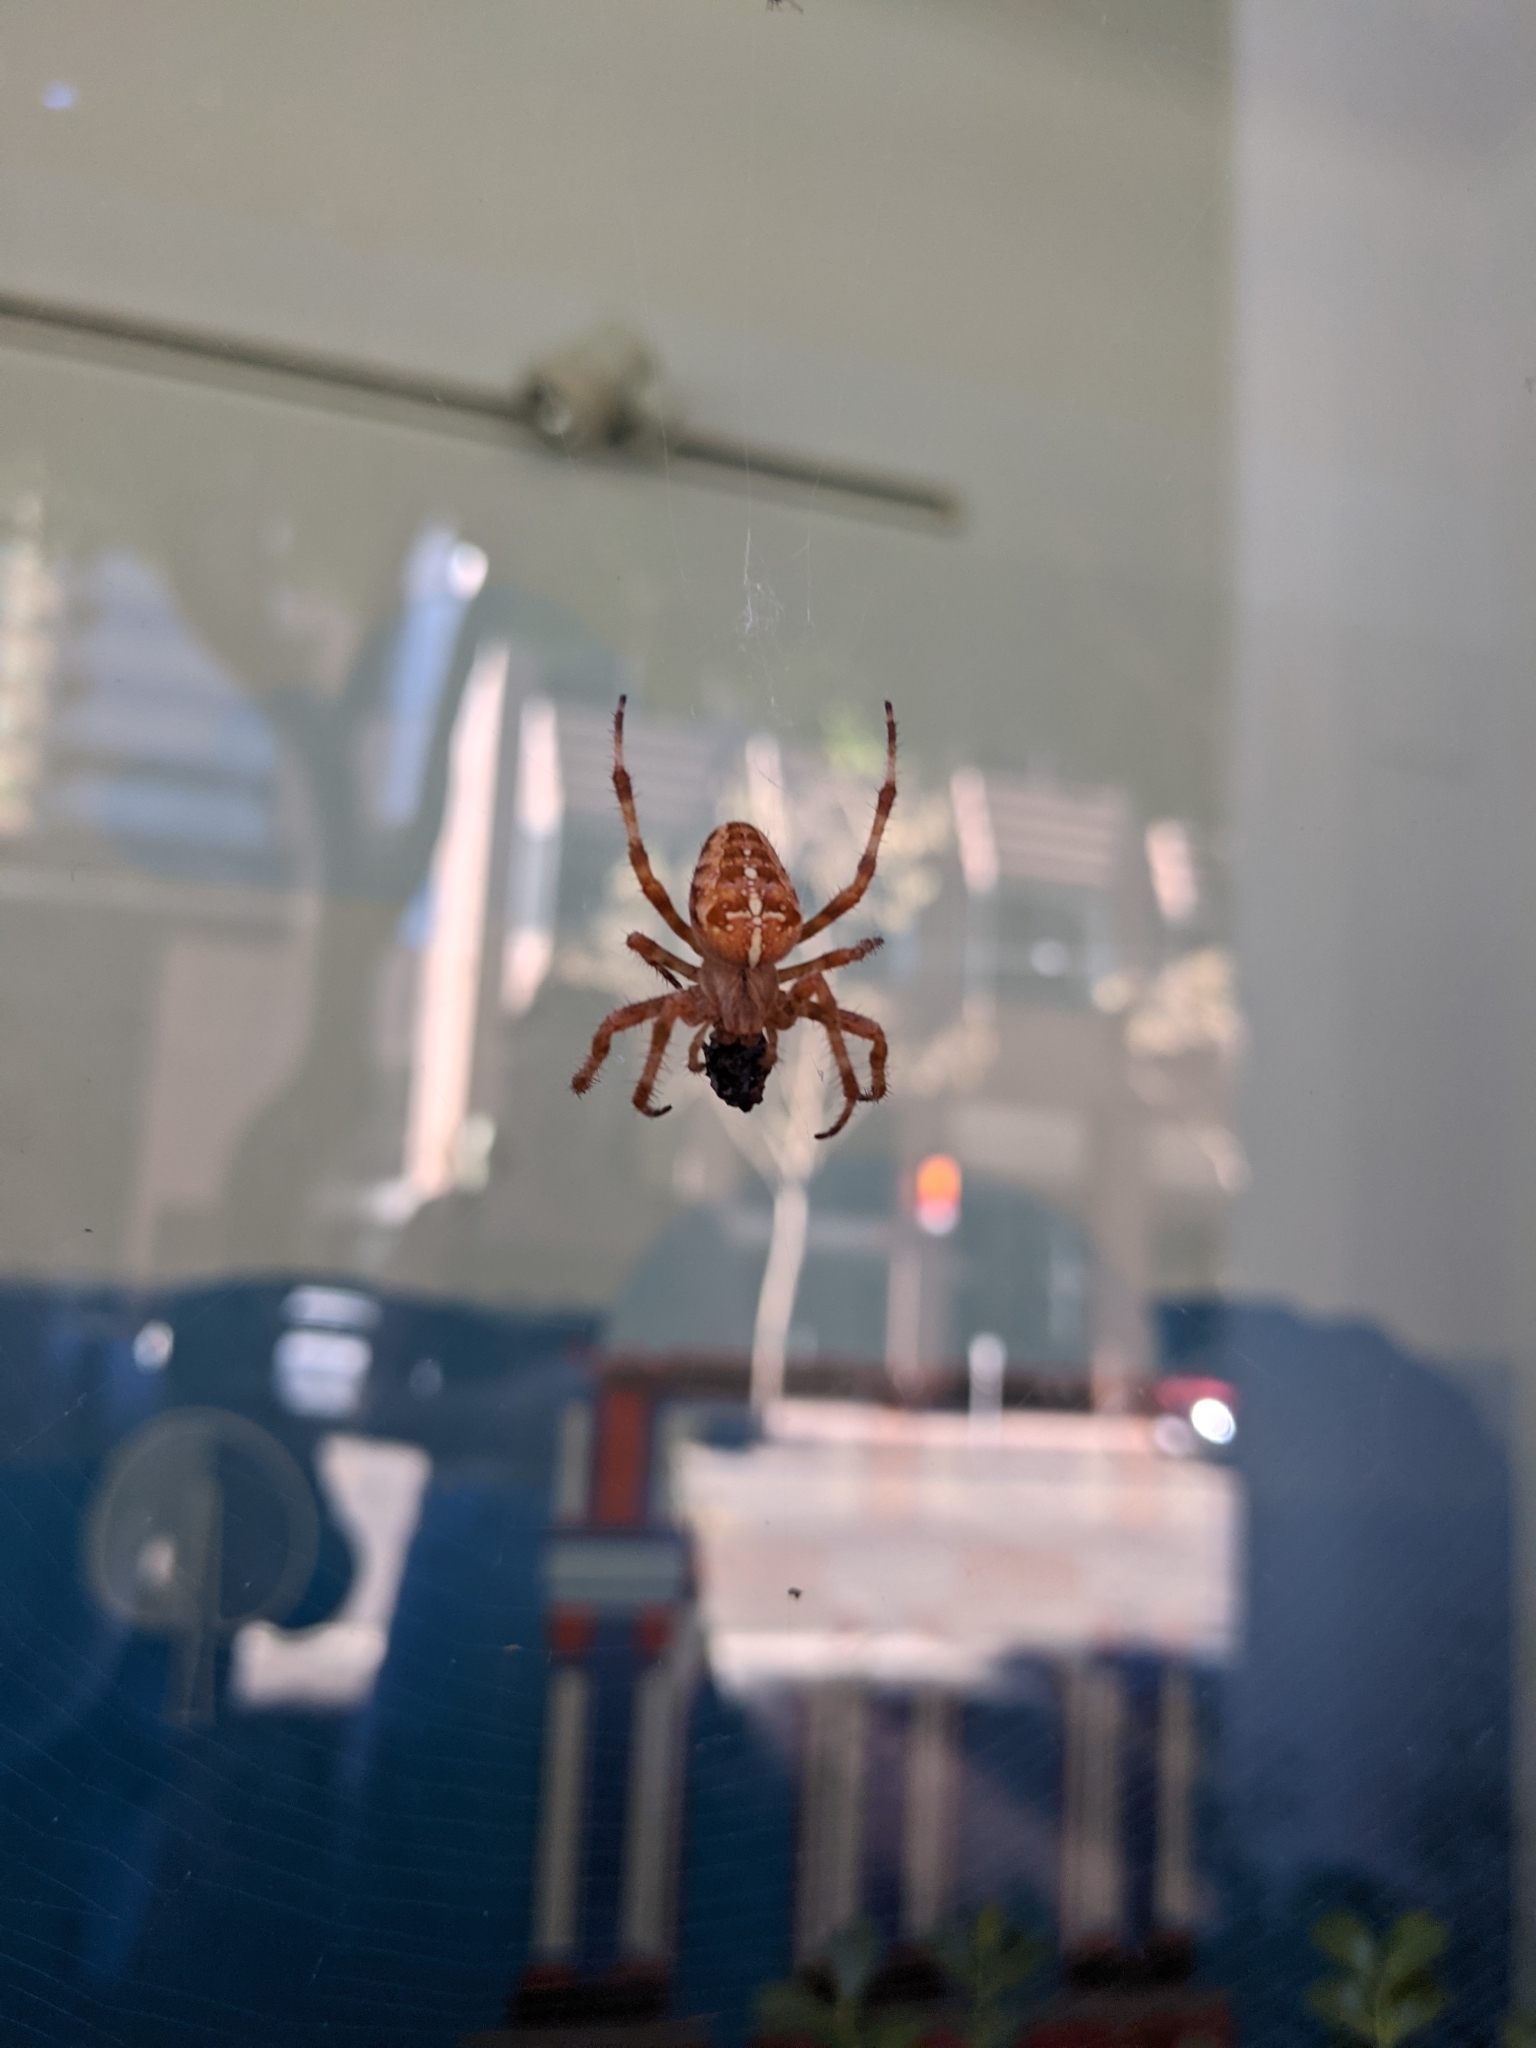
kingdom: Animalia
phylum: Arthropoda
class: Arachnida
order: Araneae
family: Araneidae
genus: Araneus
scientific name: Araneus diadematus
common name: Cross orbweaver
